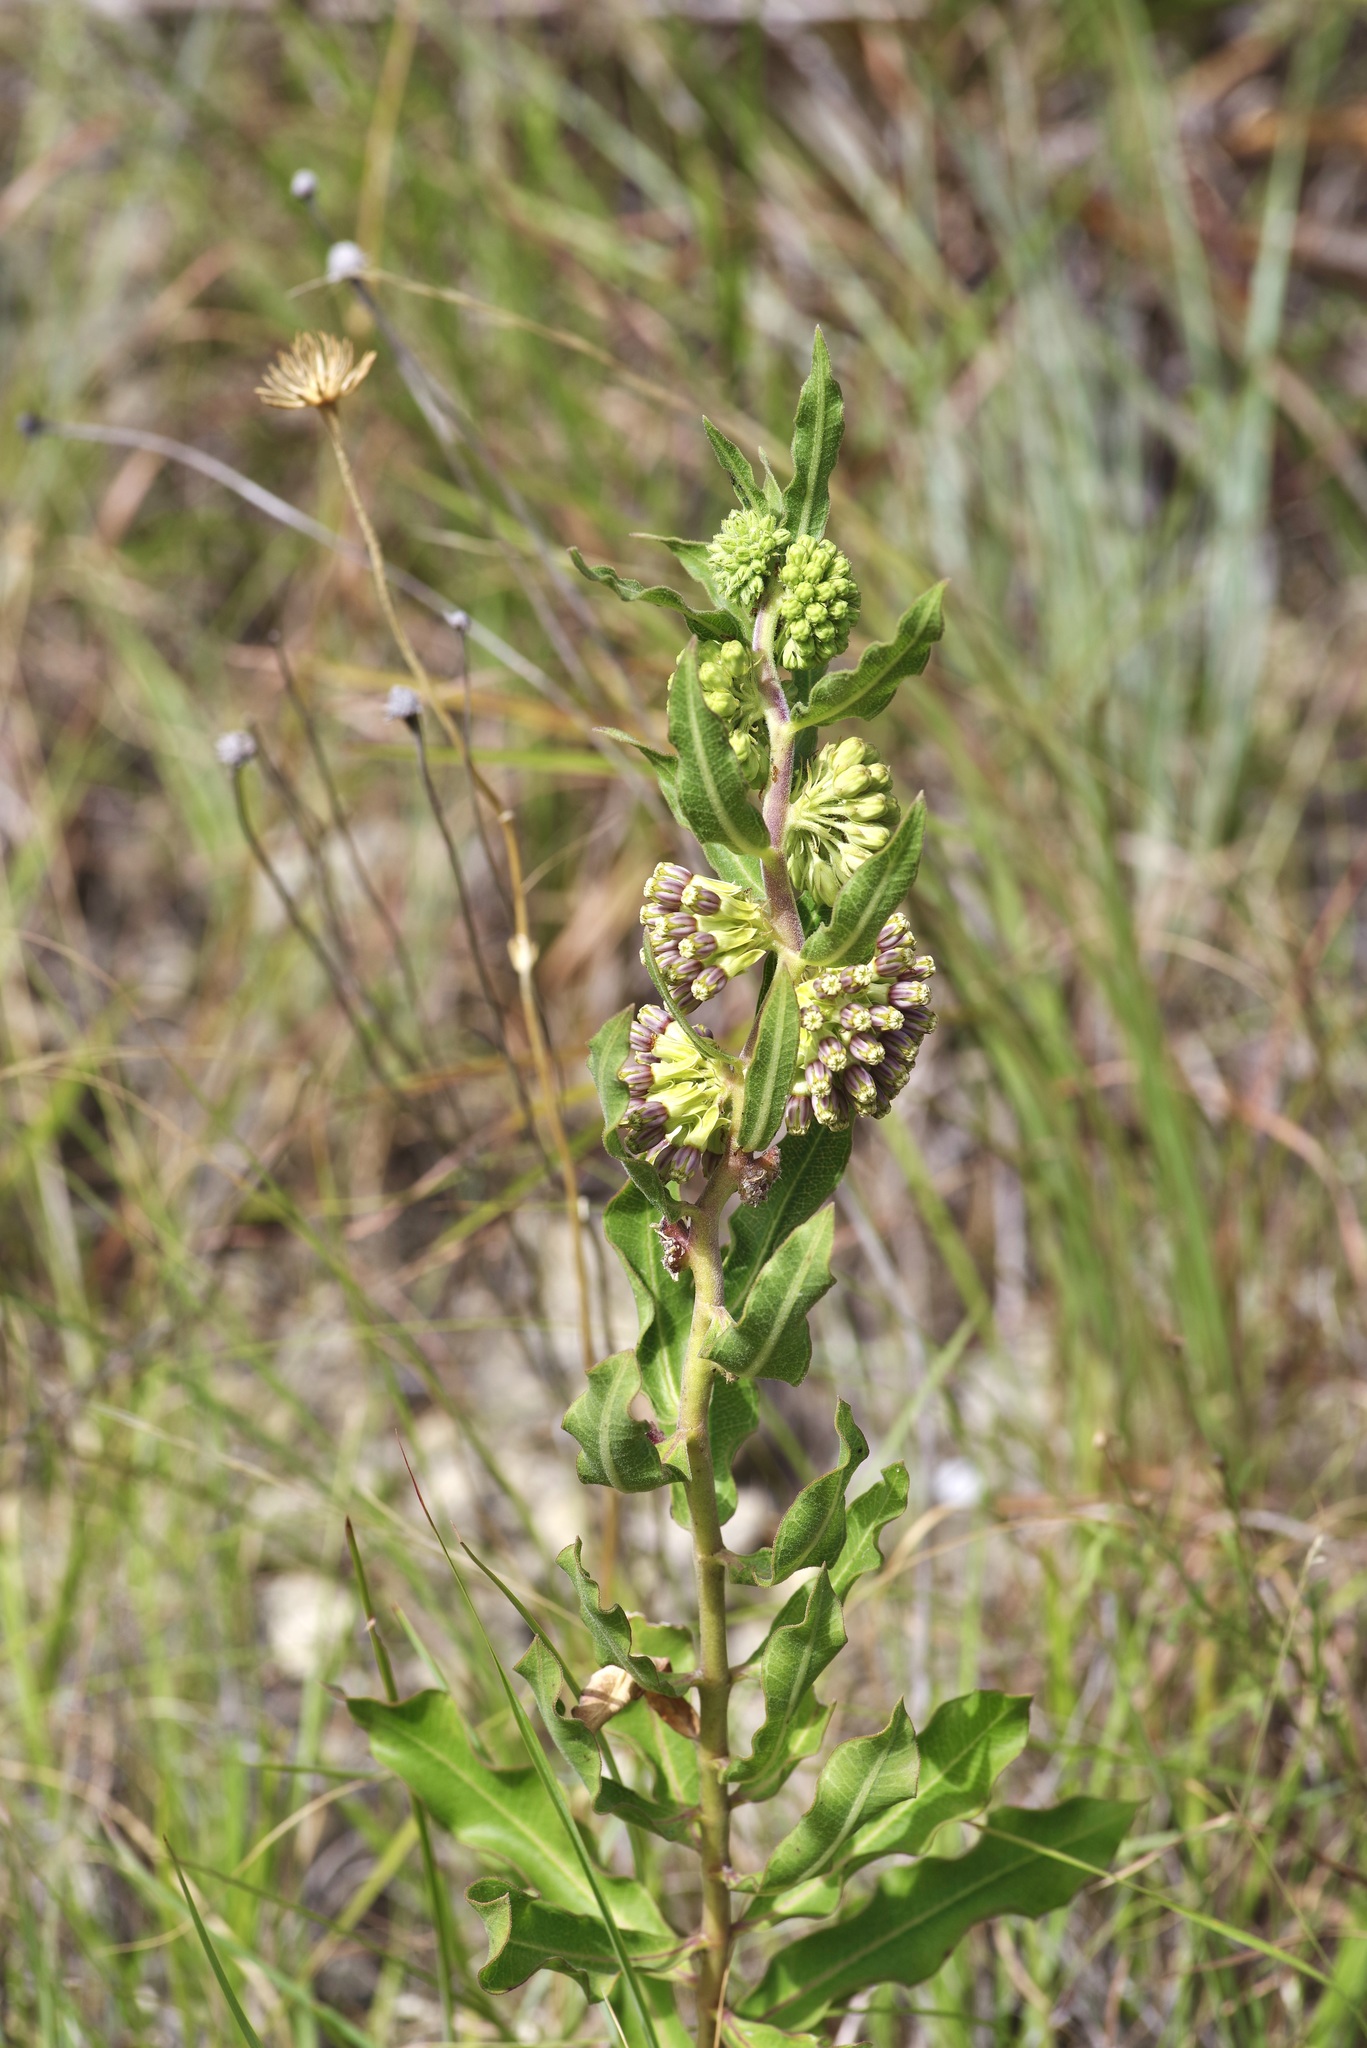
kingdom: Plantae
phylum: Tracheophyta
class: Magnoliopsida
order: Gentianales
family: Apocynaceae
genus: Asclepias
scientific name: Asclepias viridiflora
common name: Green comet milkweed
